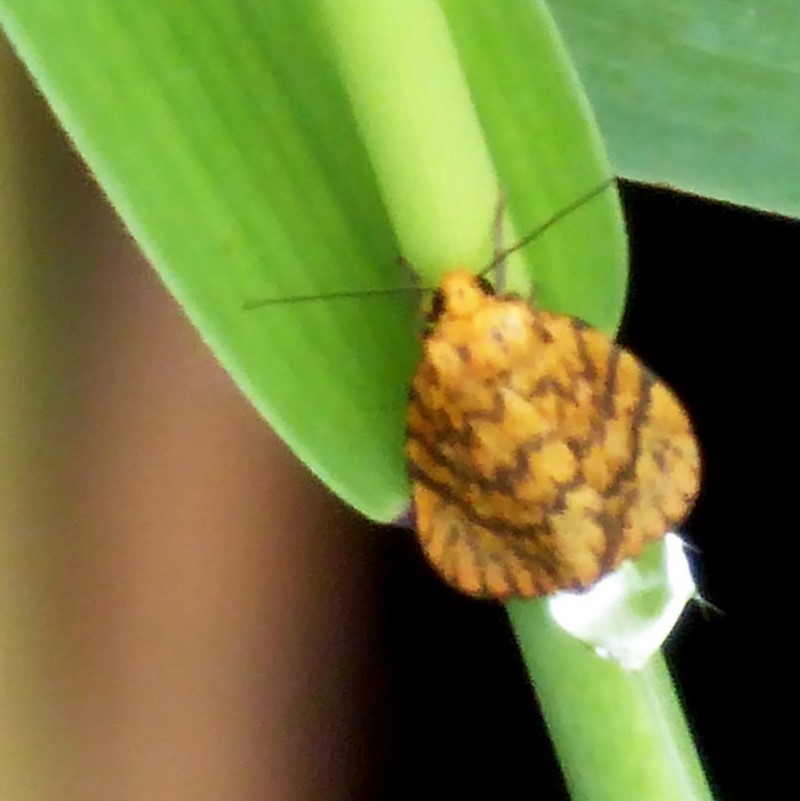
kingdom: Animalia
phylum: Arthropoda
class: Insecta
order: Lepidoptera
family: Erebidae
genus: Cyme
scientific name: Cyme structa
